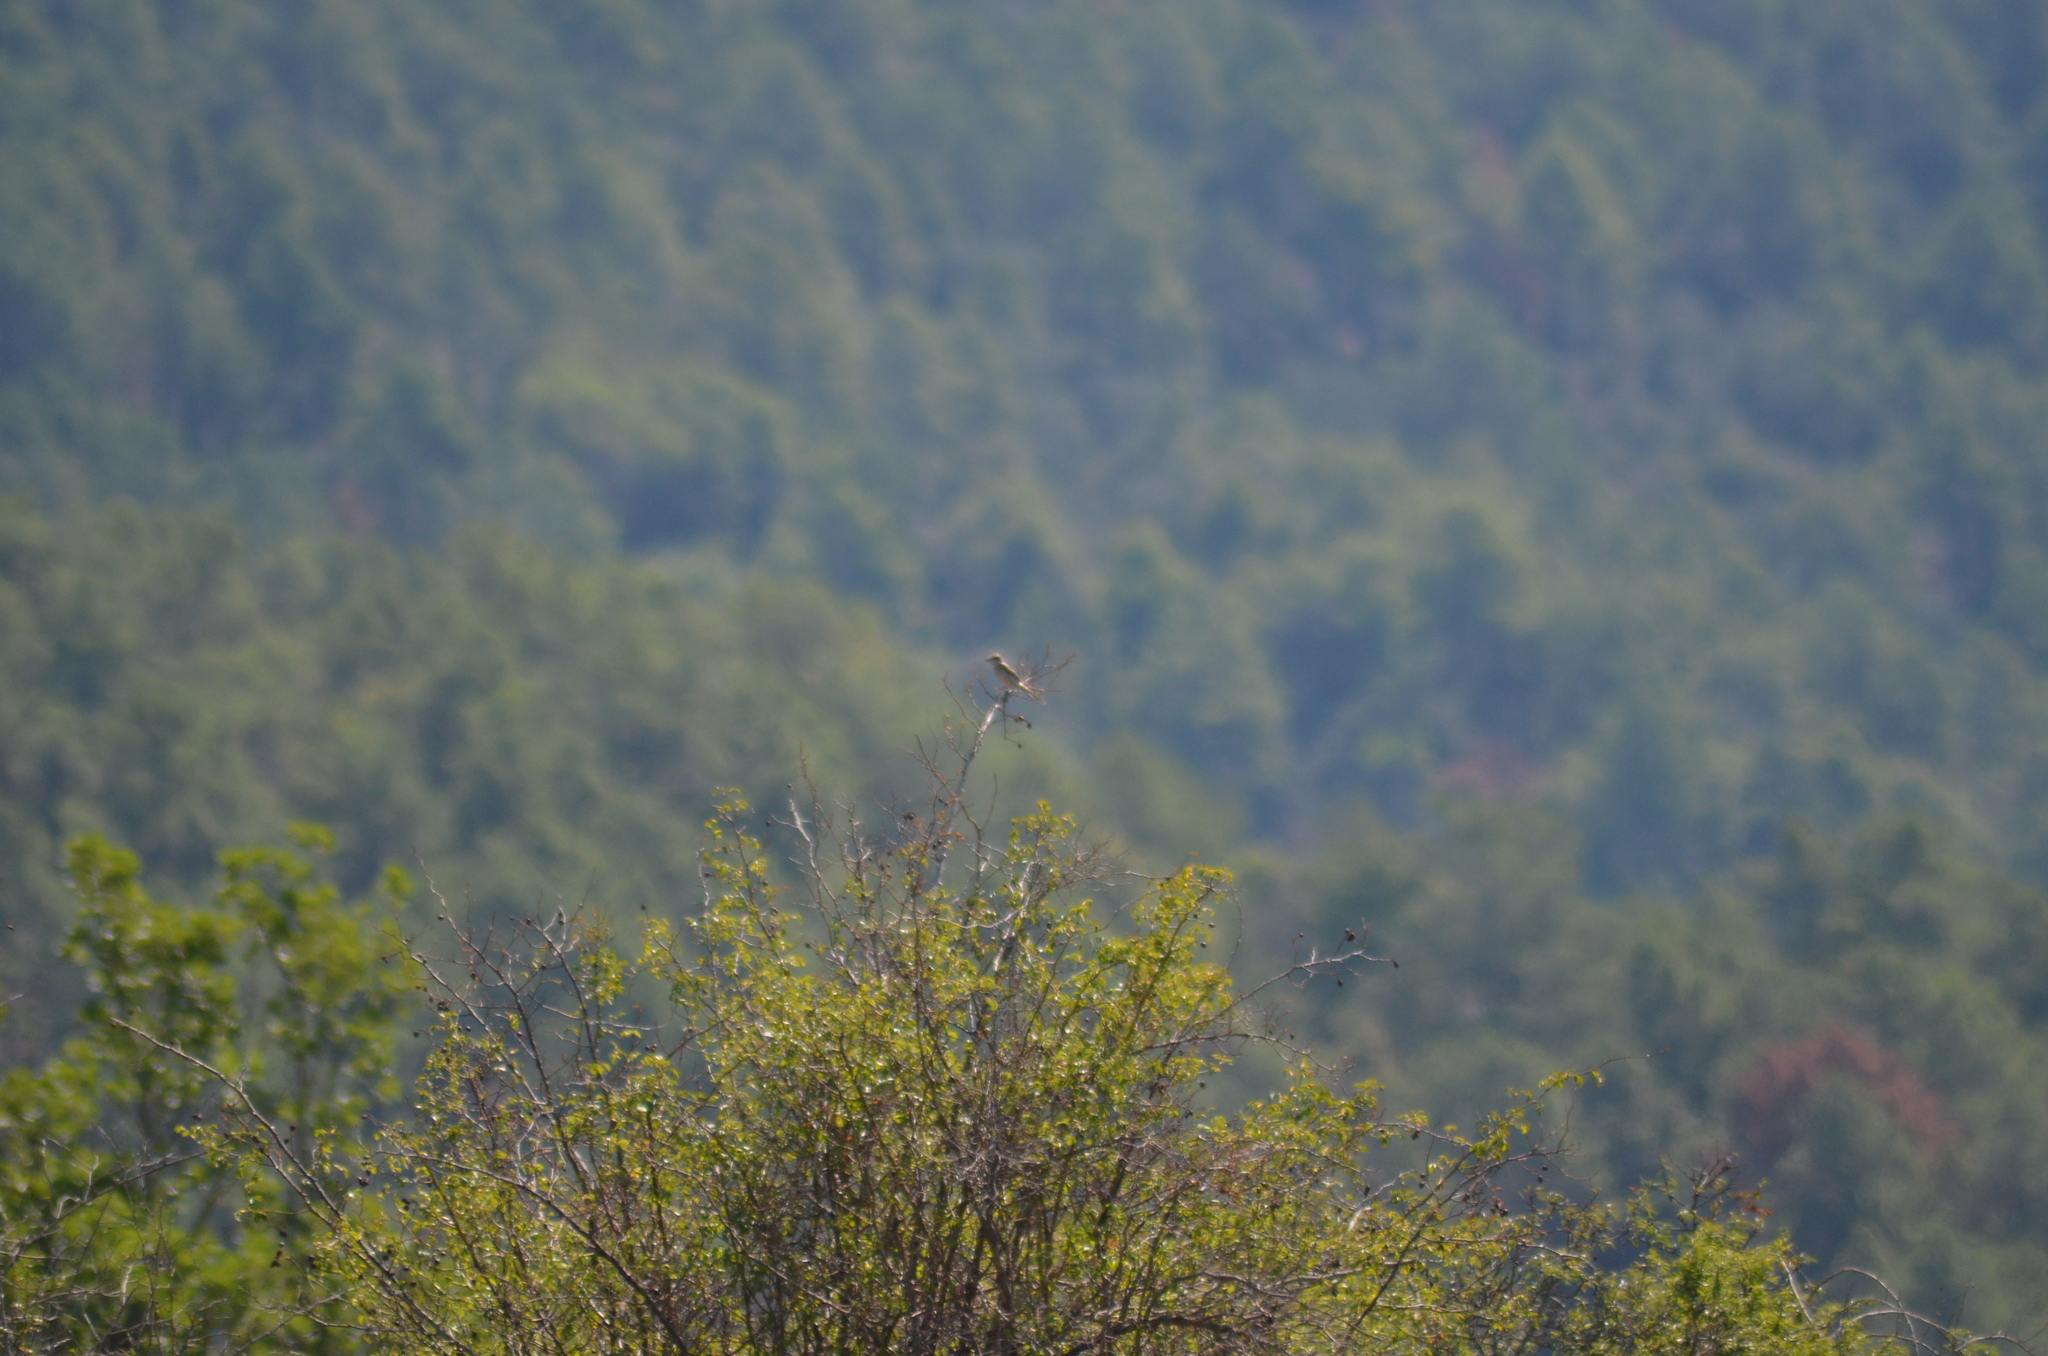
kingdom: Animalia
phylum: Chordata
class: Aves
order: Passeriformes
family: Laniidae
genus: Lanius
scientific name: Lanius senator
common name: Woodchat shrike
